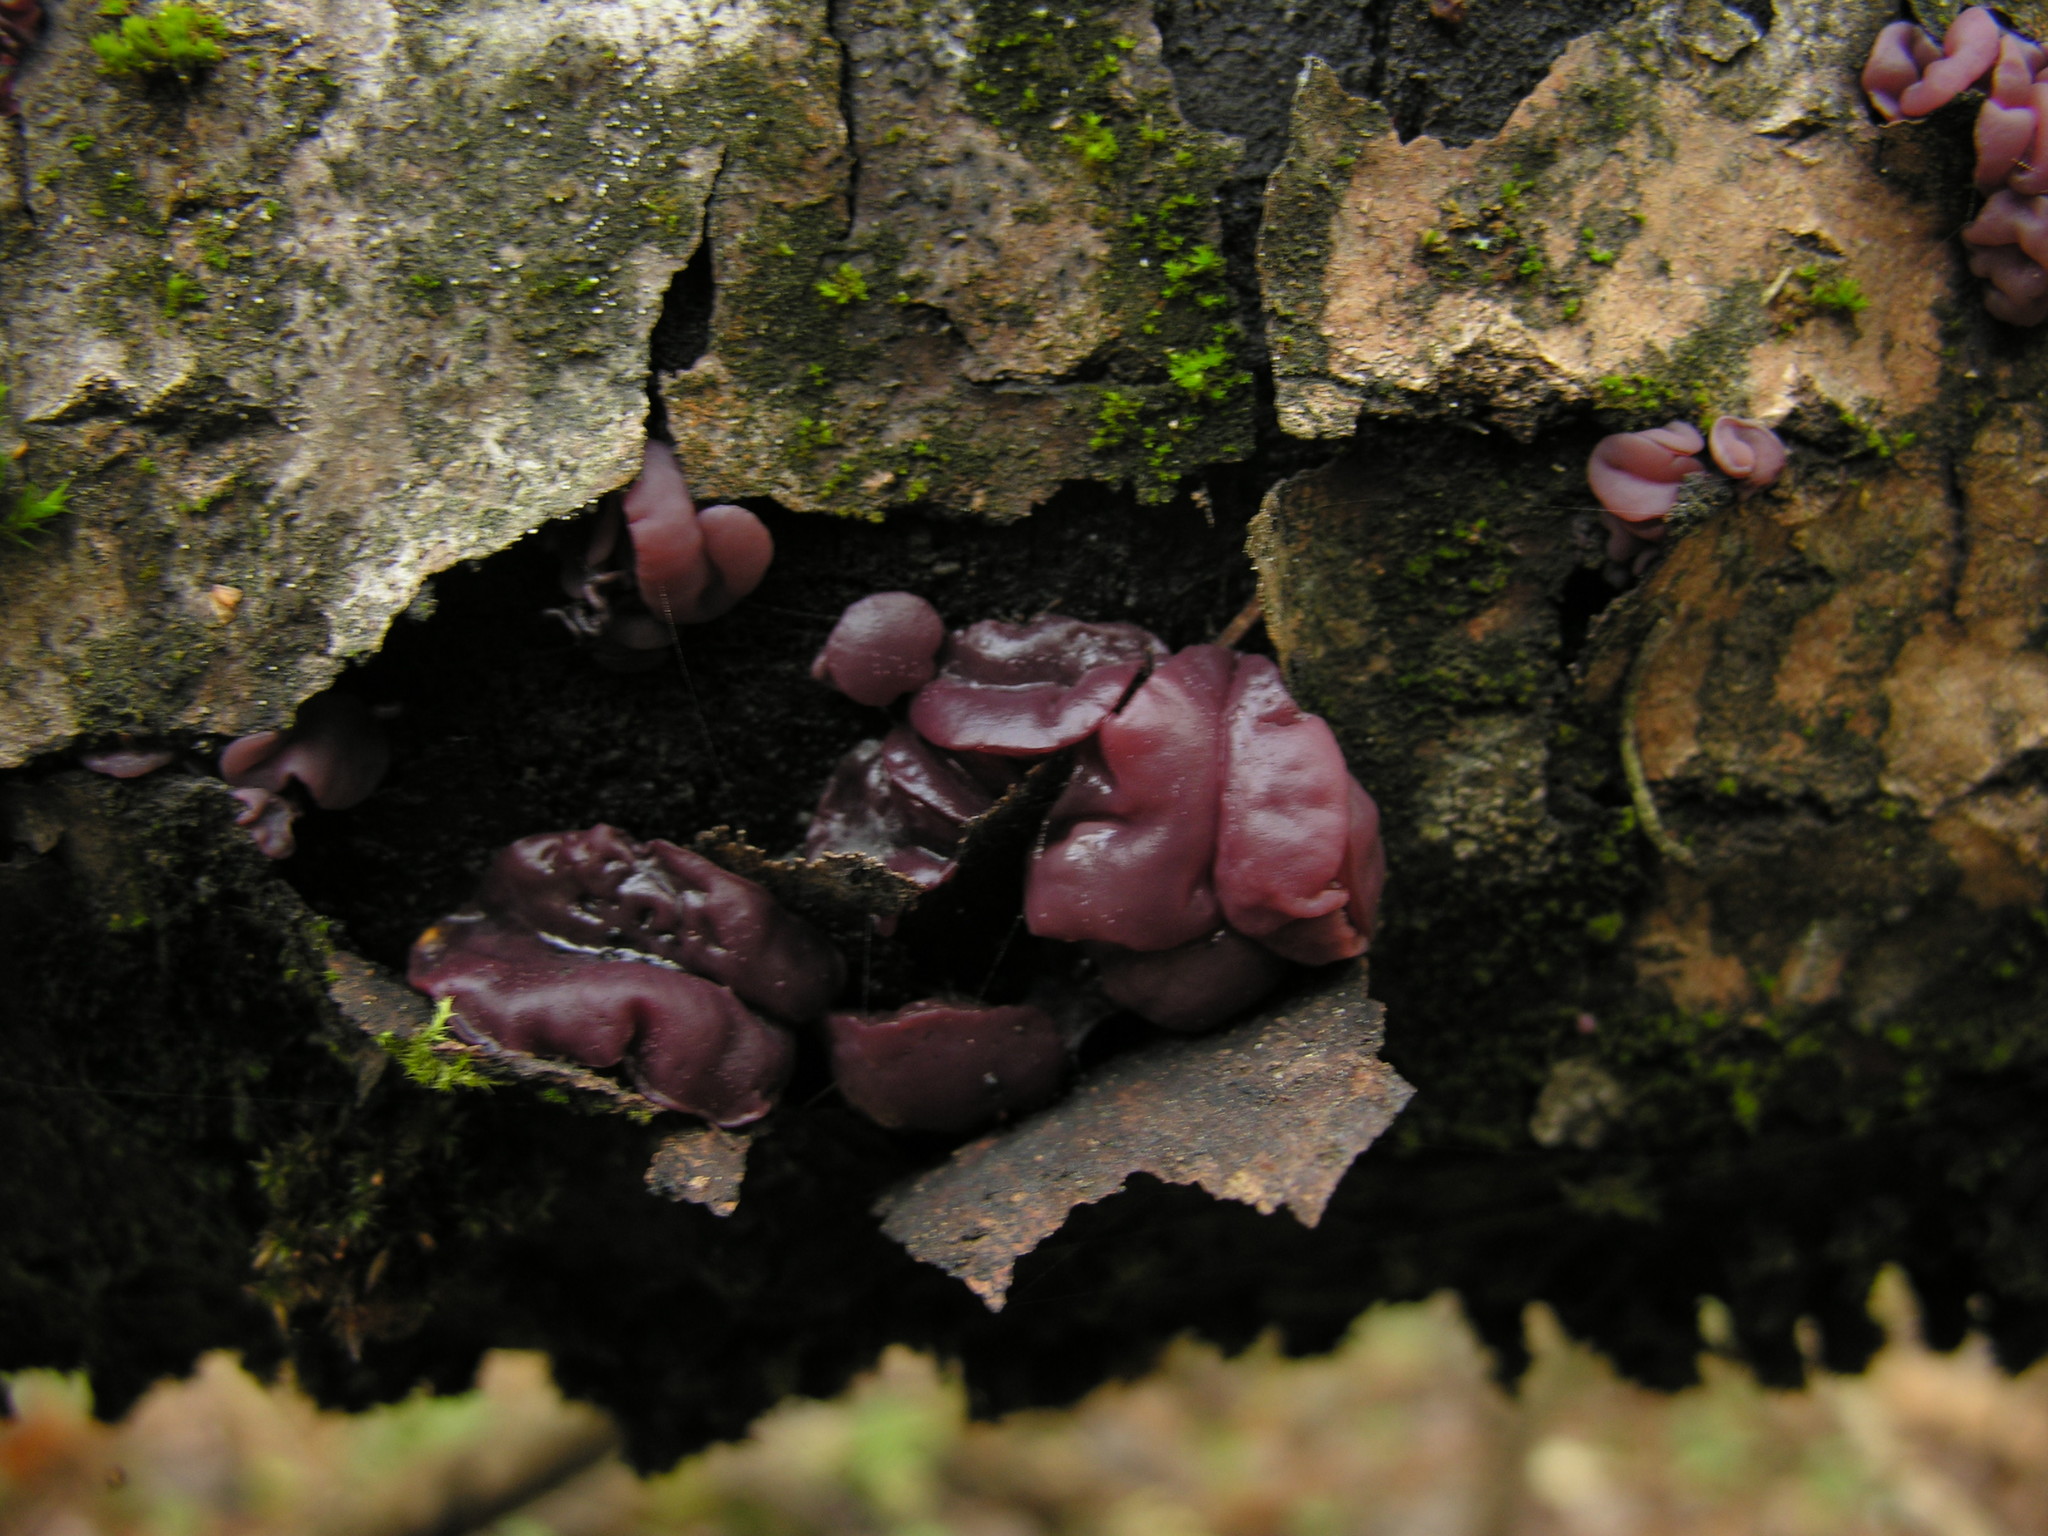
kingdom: Fungi
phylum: Ascomycota
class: Leotiomycetes
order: Helotiales
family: Gelatinodiscaceae
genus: Ascocoryne
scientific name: Ascocoryne sarcoides
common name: Purple jellydisc
